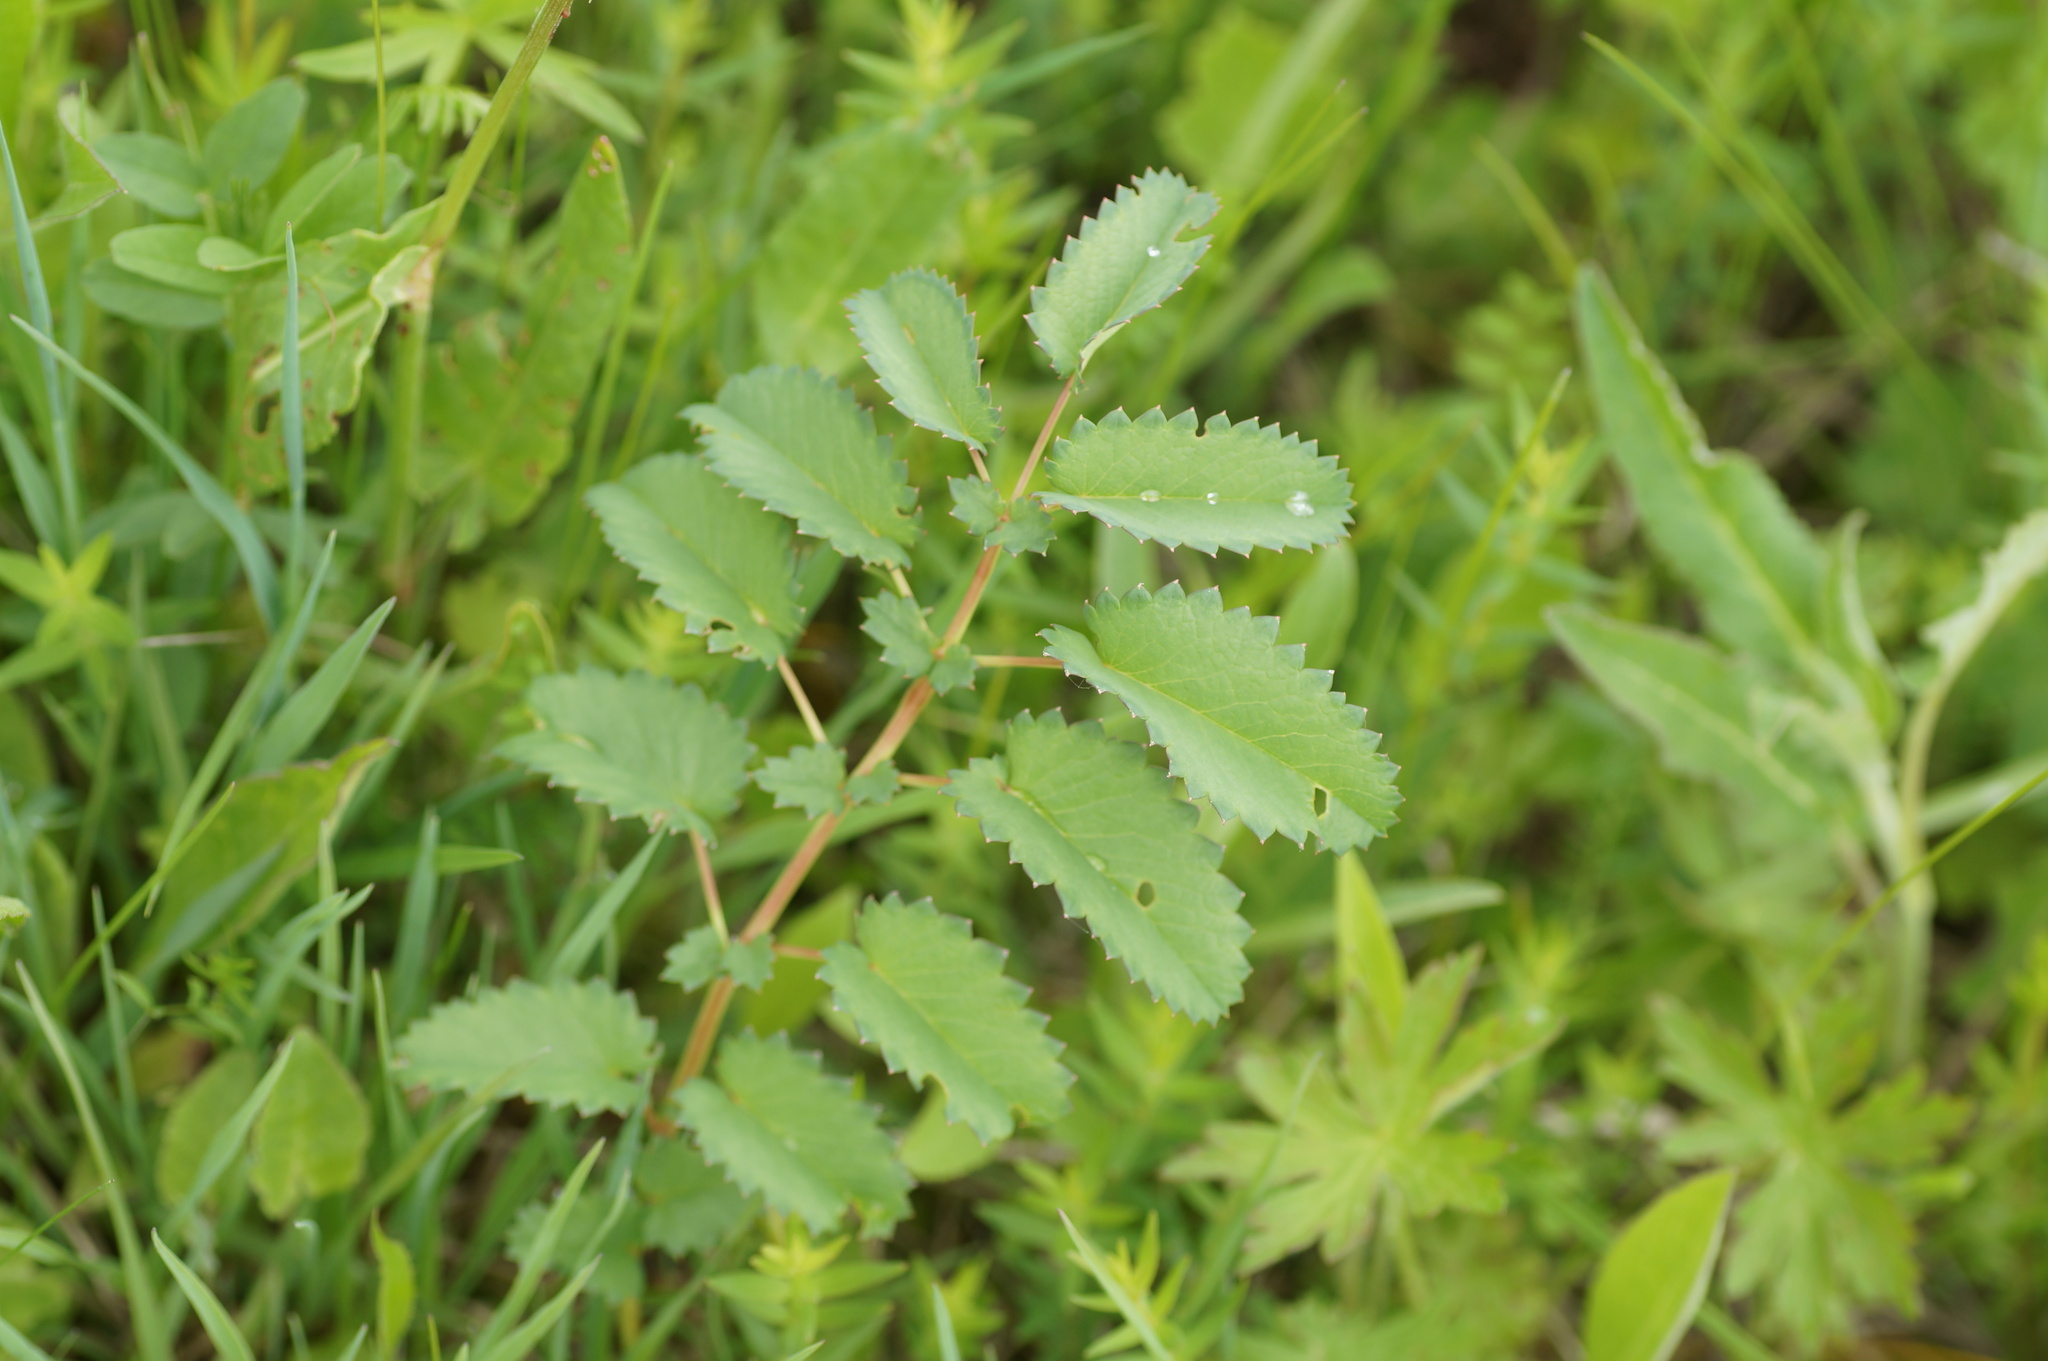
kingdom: Plantae
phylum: Tracheophyta
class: Magnoliopsida
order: Rosales
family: Rosaceae
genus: Sanguisorba
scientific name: Sanguisorba officinalis
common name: Great burnet
